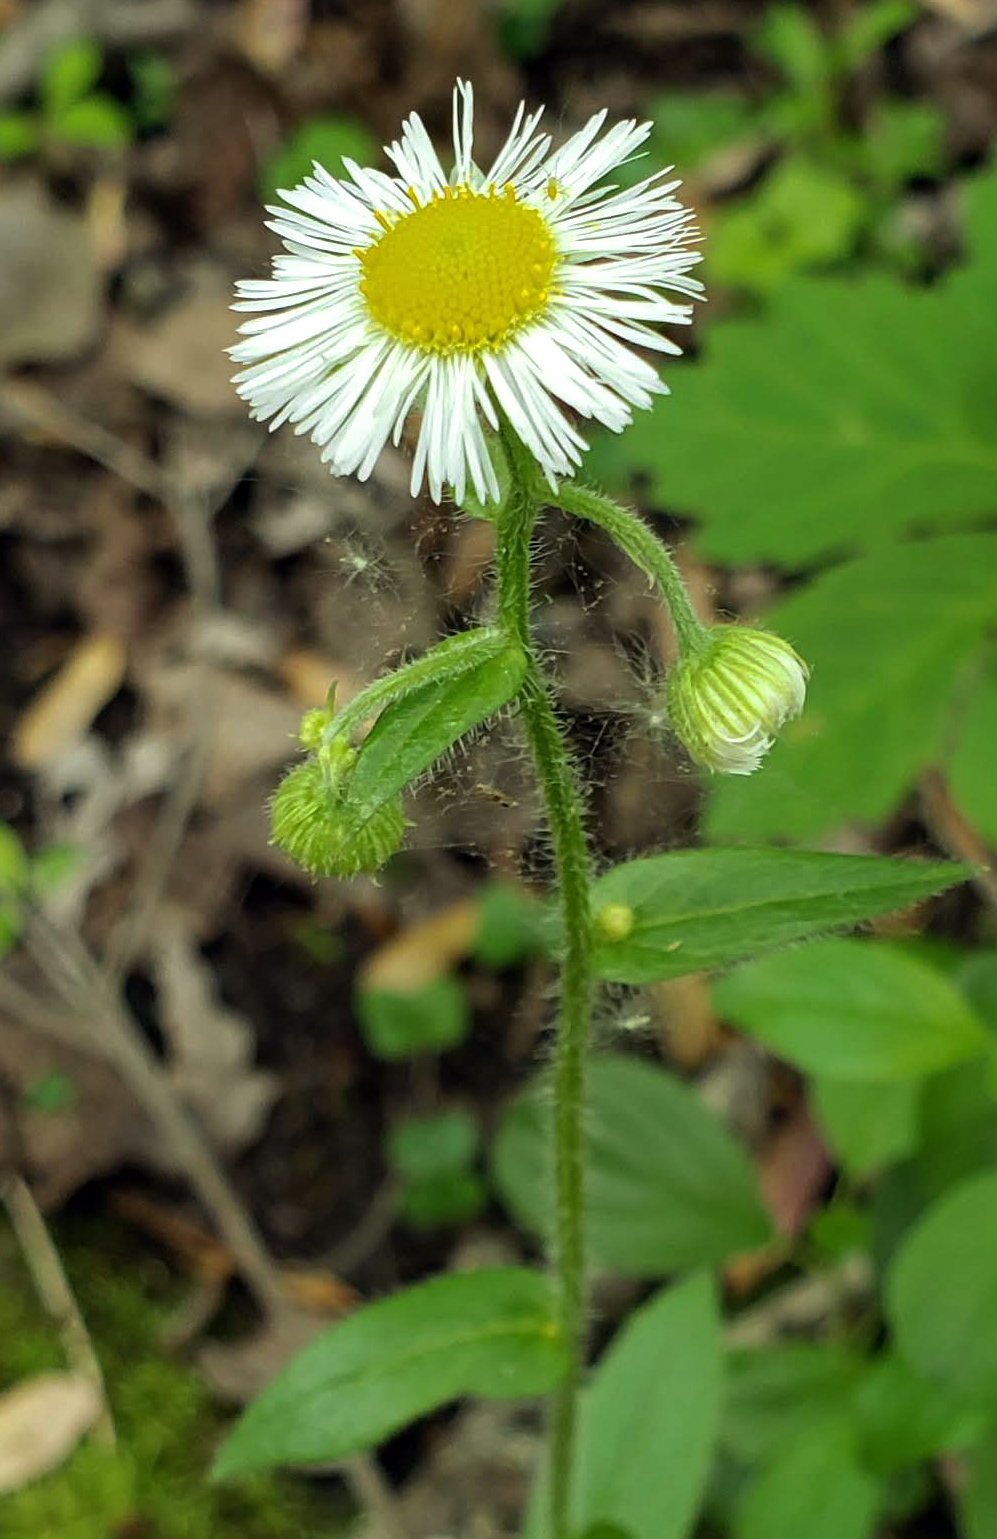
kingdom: Plantae
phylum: Tracheophyta
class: Magnoliopsida
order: Asterales
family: Asteraceae
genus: Erigeron
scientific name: Erigeron philadelphicus
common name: Robin's-plantain
